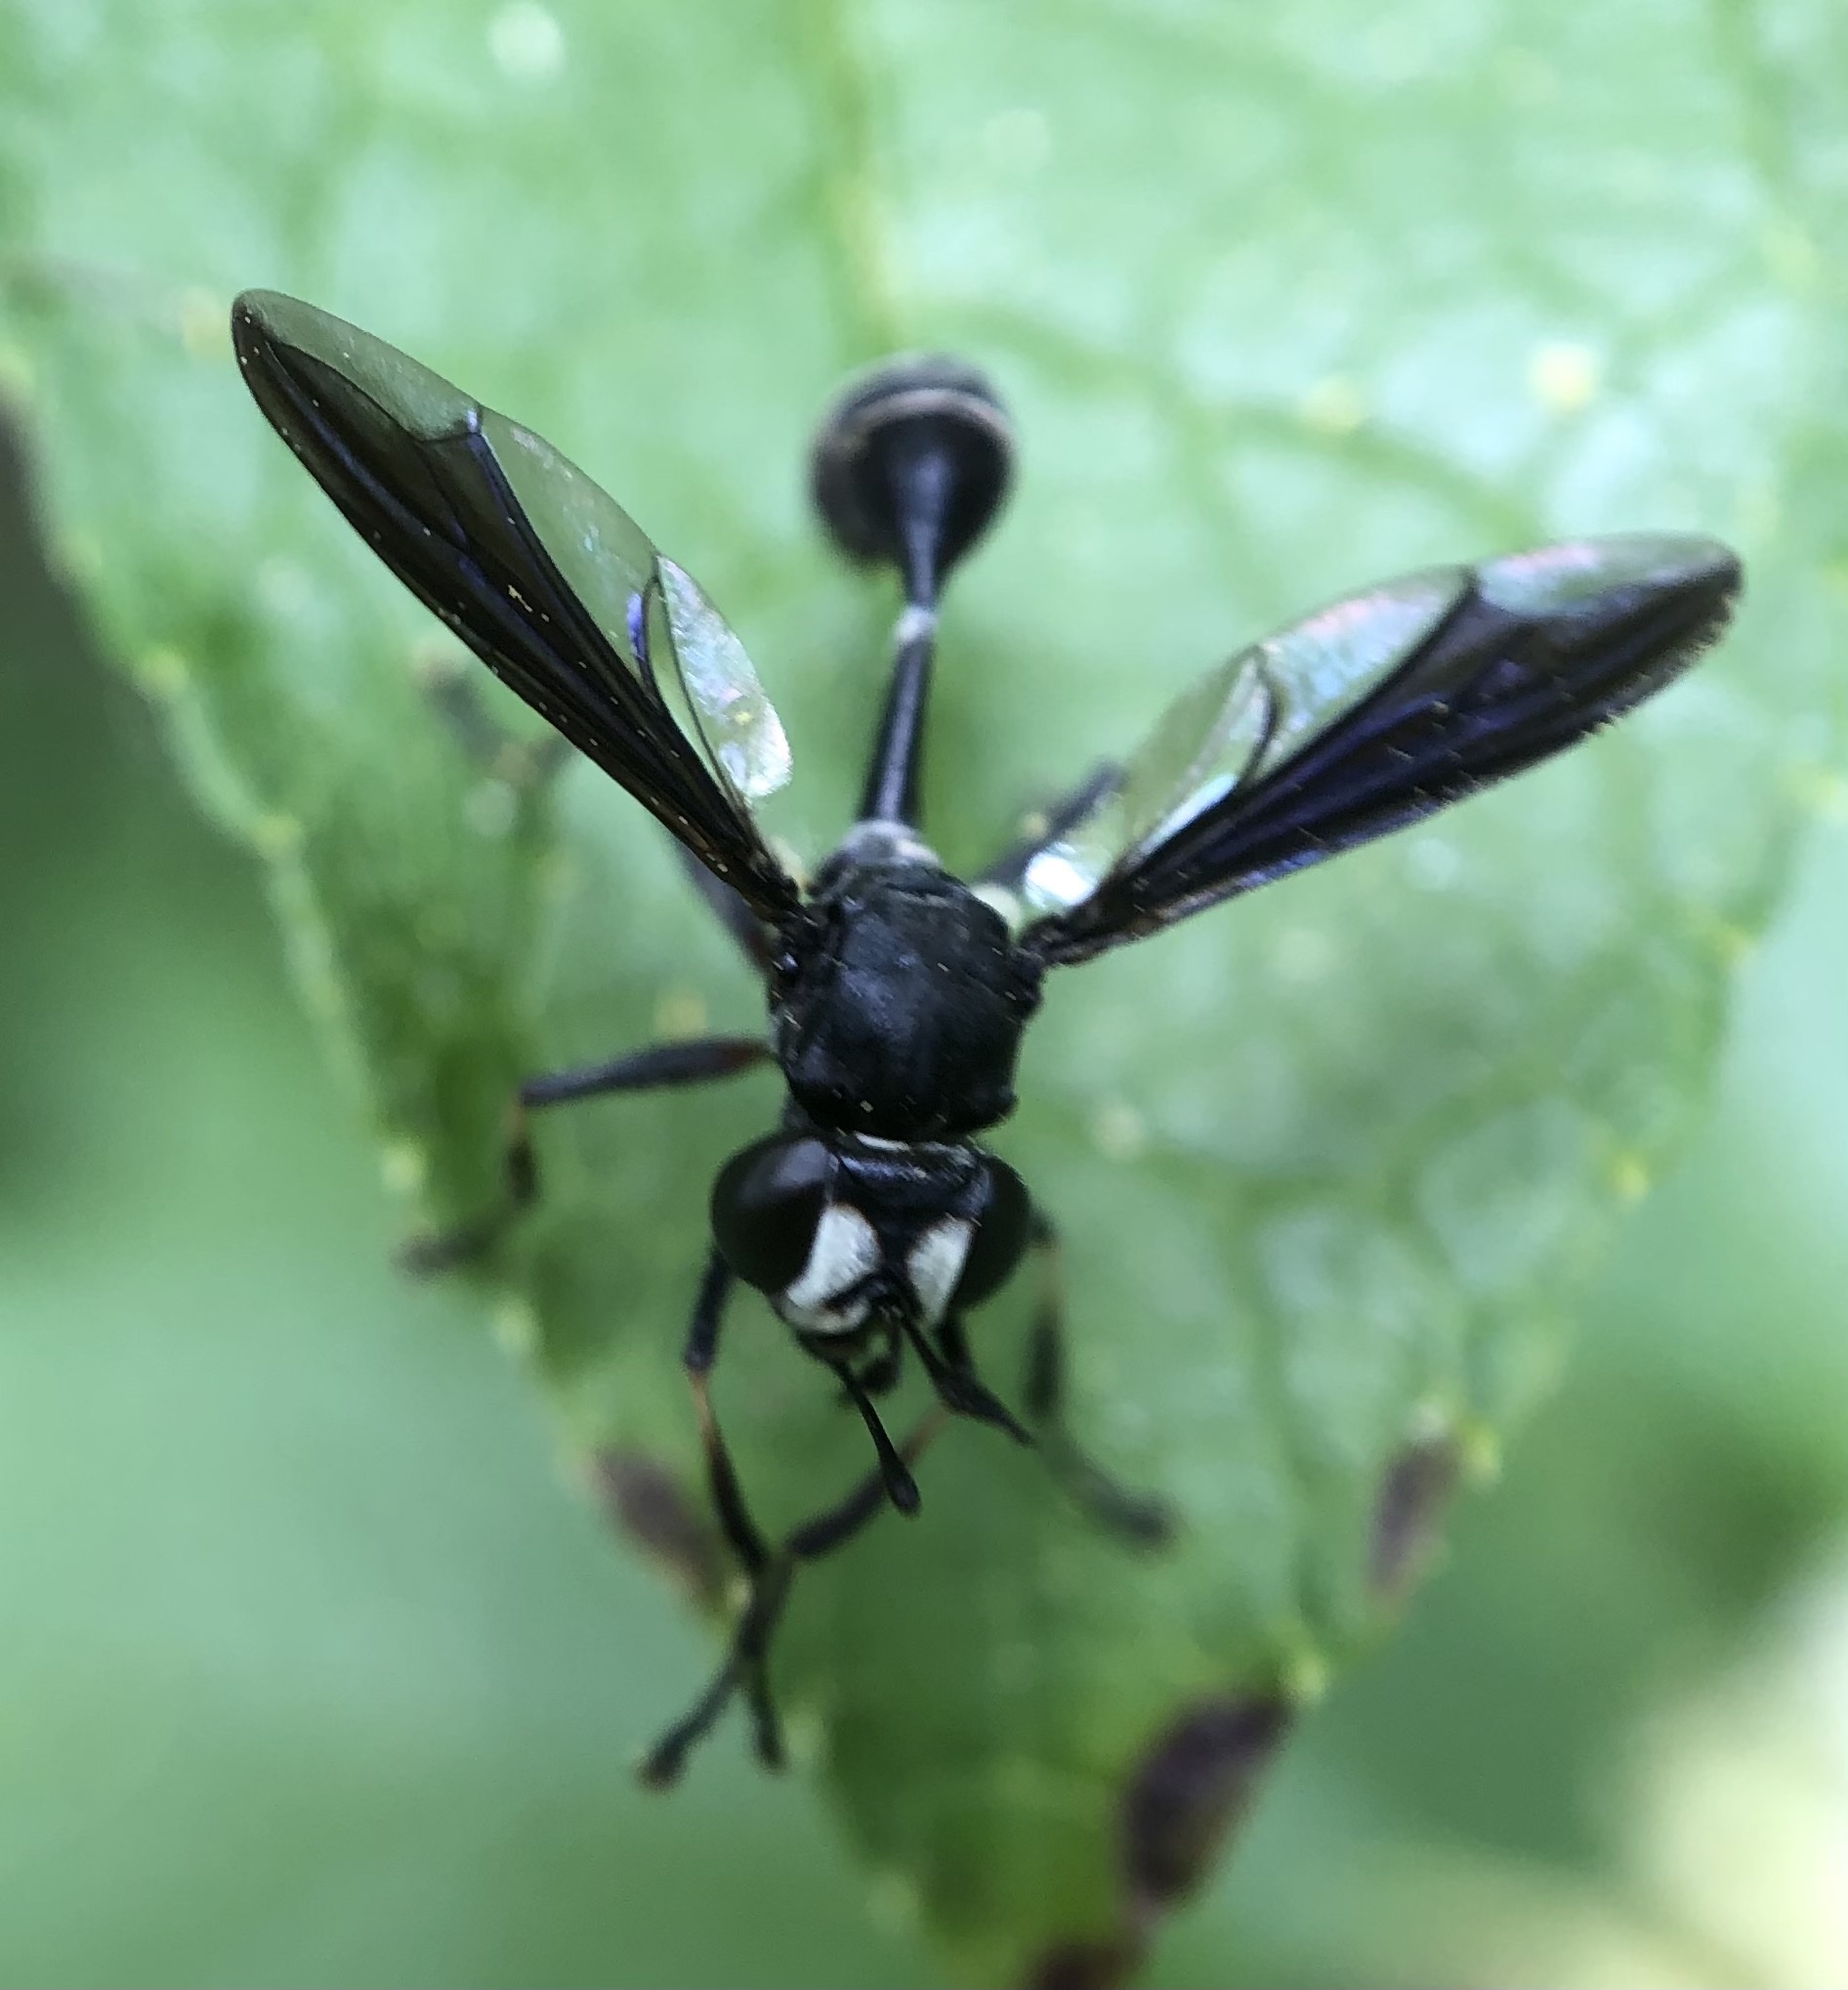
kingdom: Animalia
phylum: Arthropoda
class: Insecta
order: Diptera
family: Conopidae
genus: Physocephala
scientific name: Physocephala tibialis
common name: Common eastern physocephala
